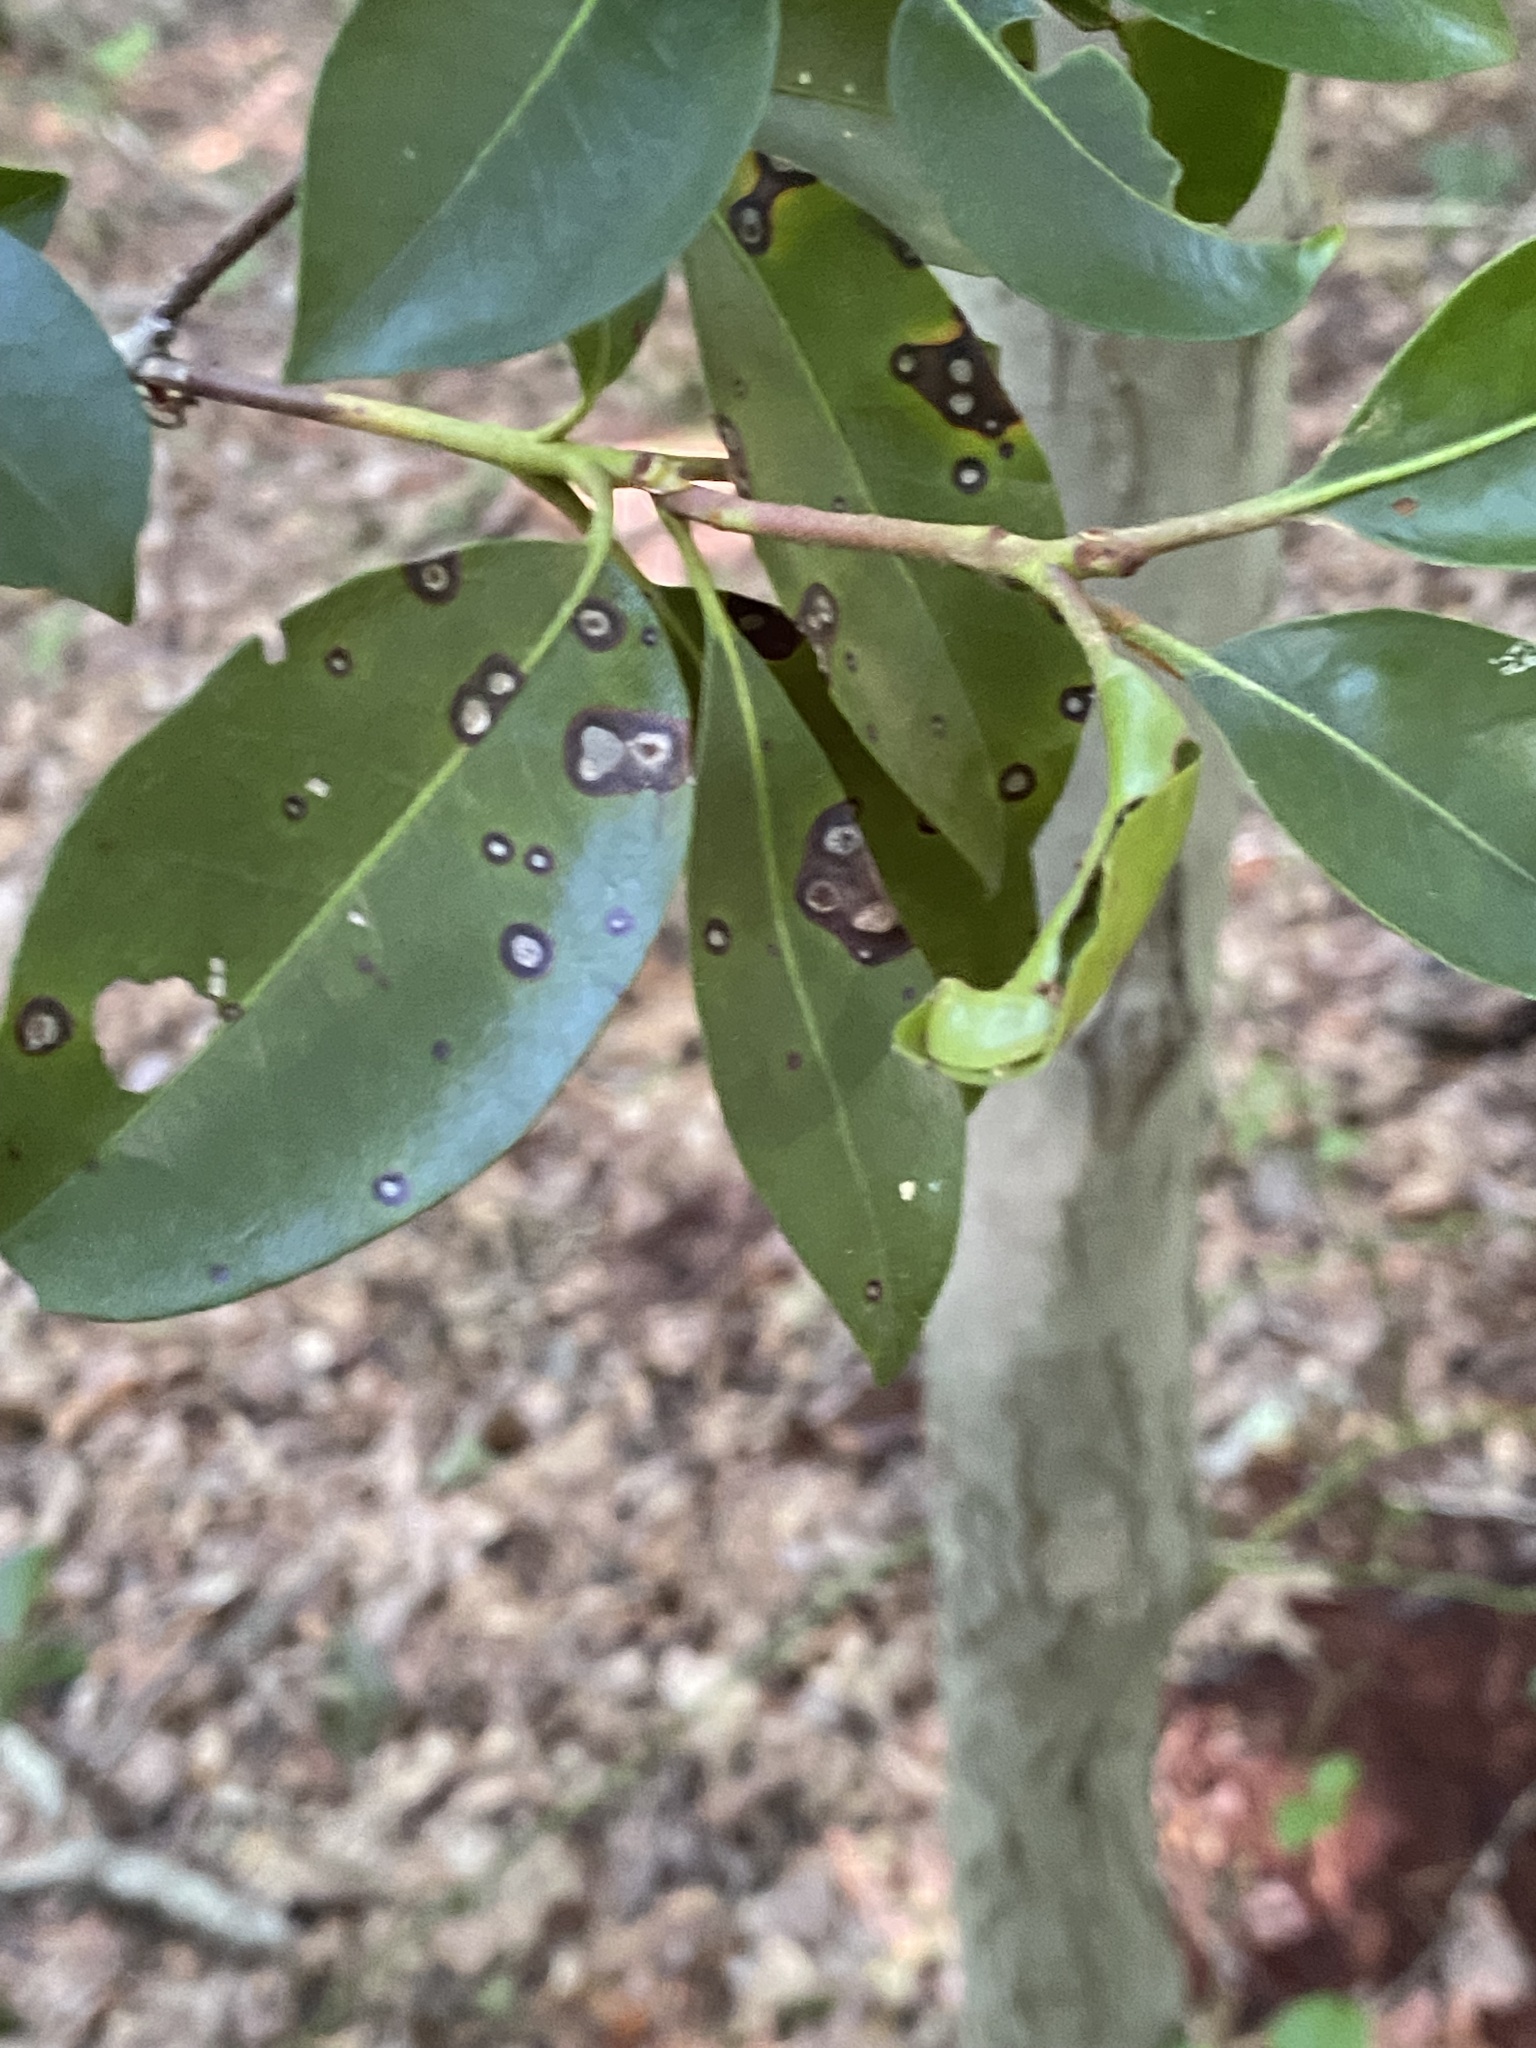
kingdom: Fungi
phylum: Ascomycota
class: Dothideomycetes
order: Mycosphaerellales
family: Mycosphaerellaceae
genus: Mycosphaerella
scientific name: Mycosphaerella colorata
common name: Mountain laurel leaf spot
